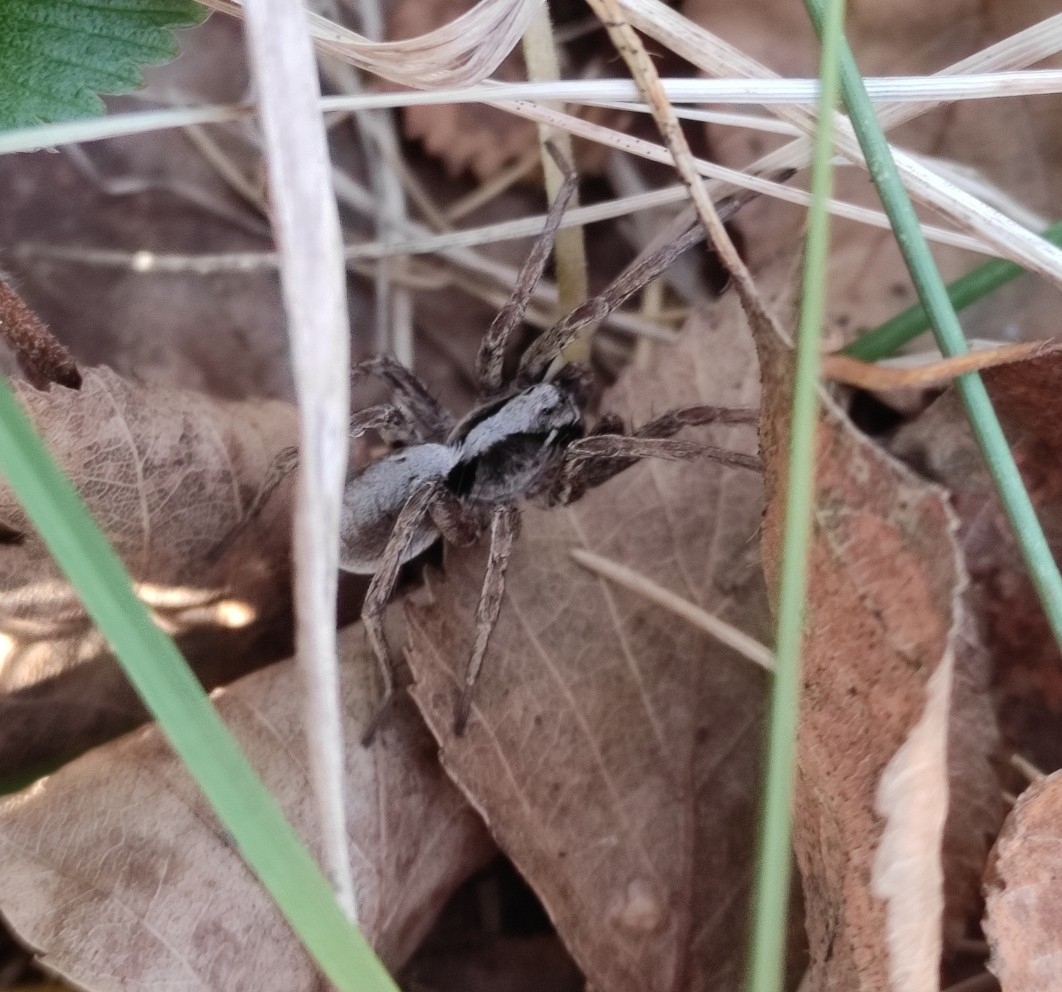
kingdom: Animalia
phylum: Arthropoda
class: Arachnida
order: Araneae
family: Lycosidae
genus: Alopecosa
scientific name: Alopecosa inquilina
